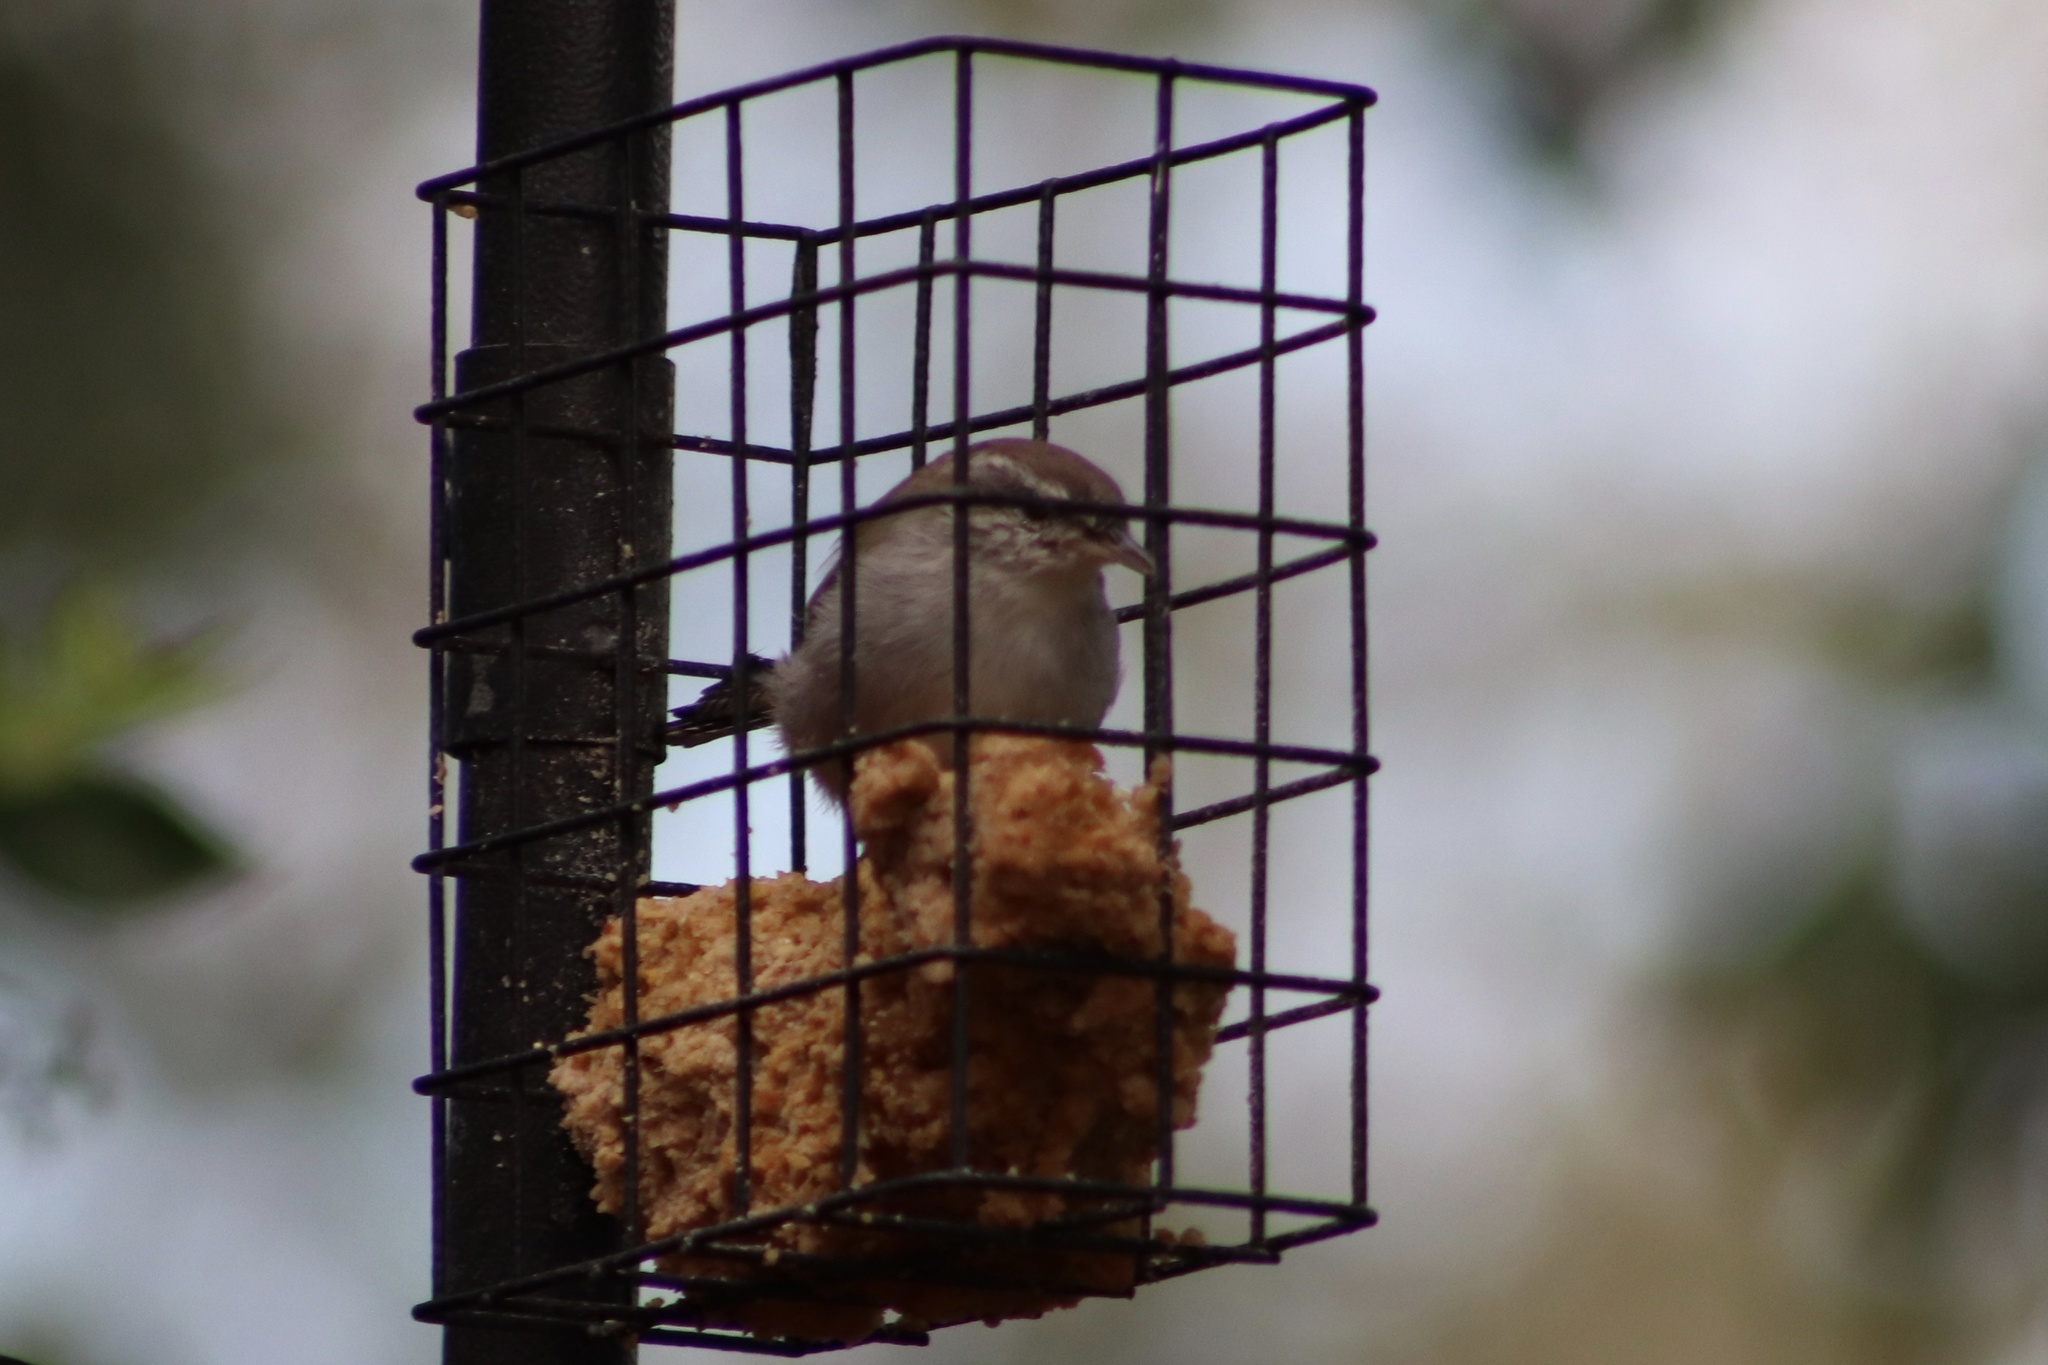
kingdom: Animalia
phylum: Chordata
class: Aves
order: Passeriformes
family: Troglodytidae
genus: Thryomanes
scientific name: Thryomanes bewickii
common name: Bewick's wren
